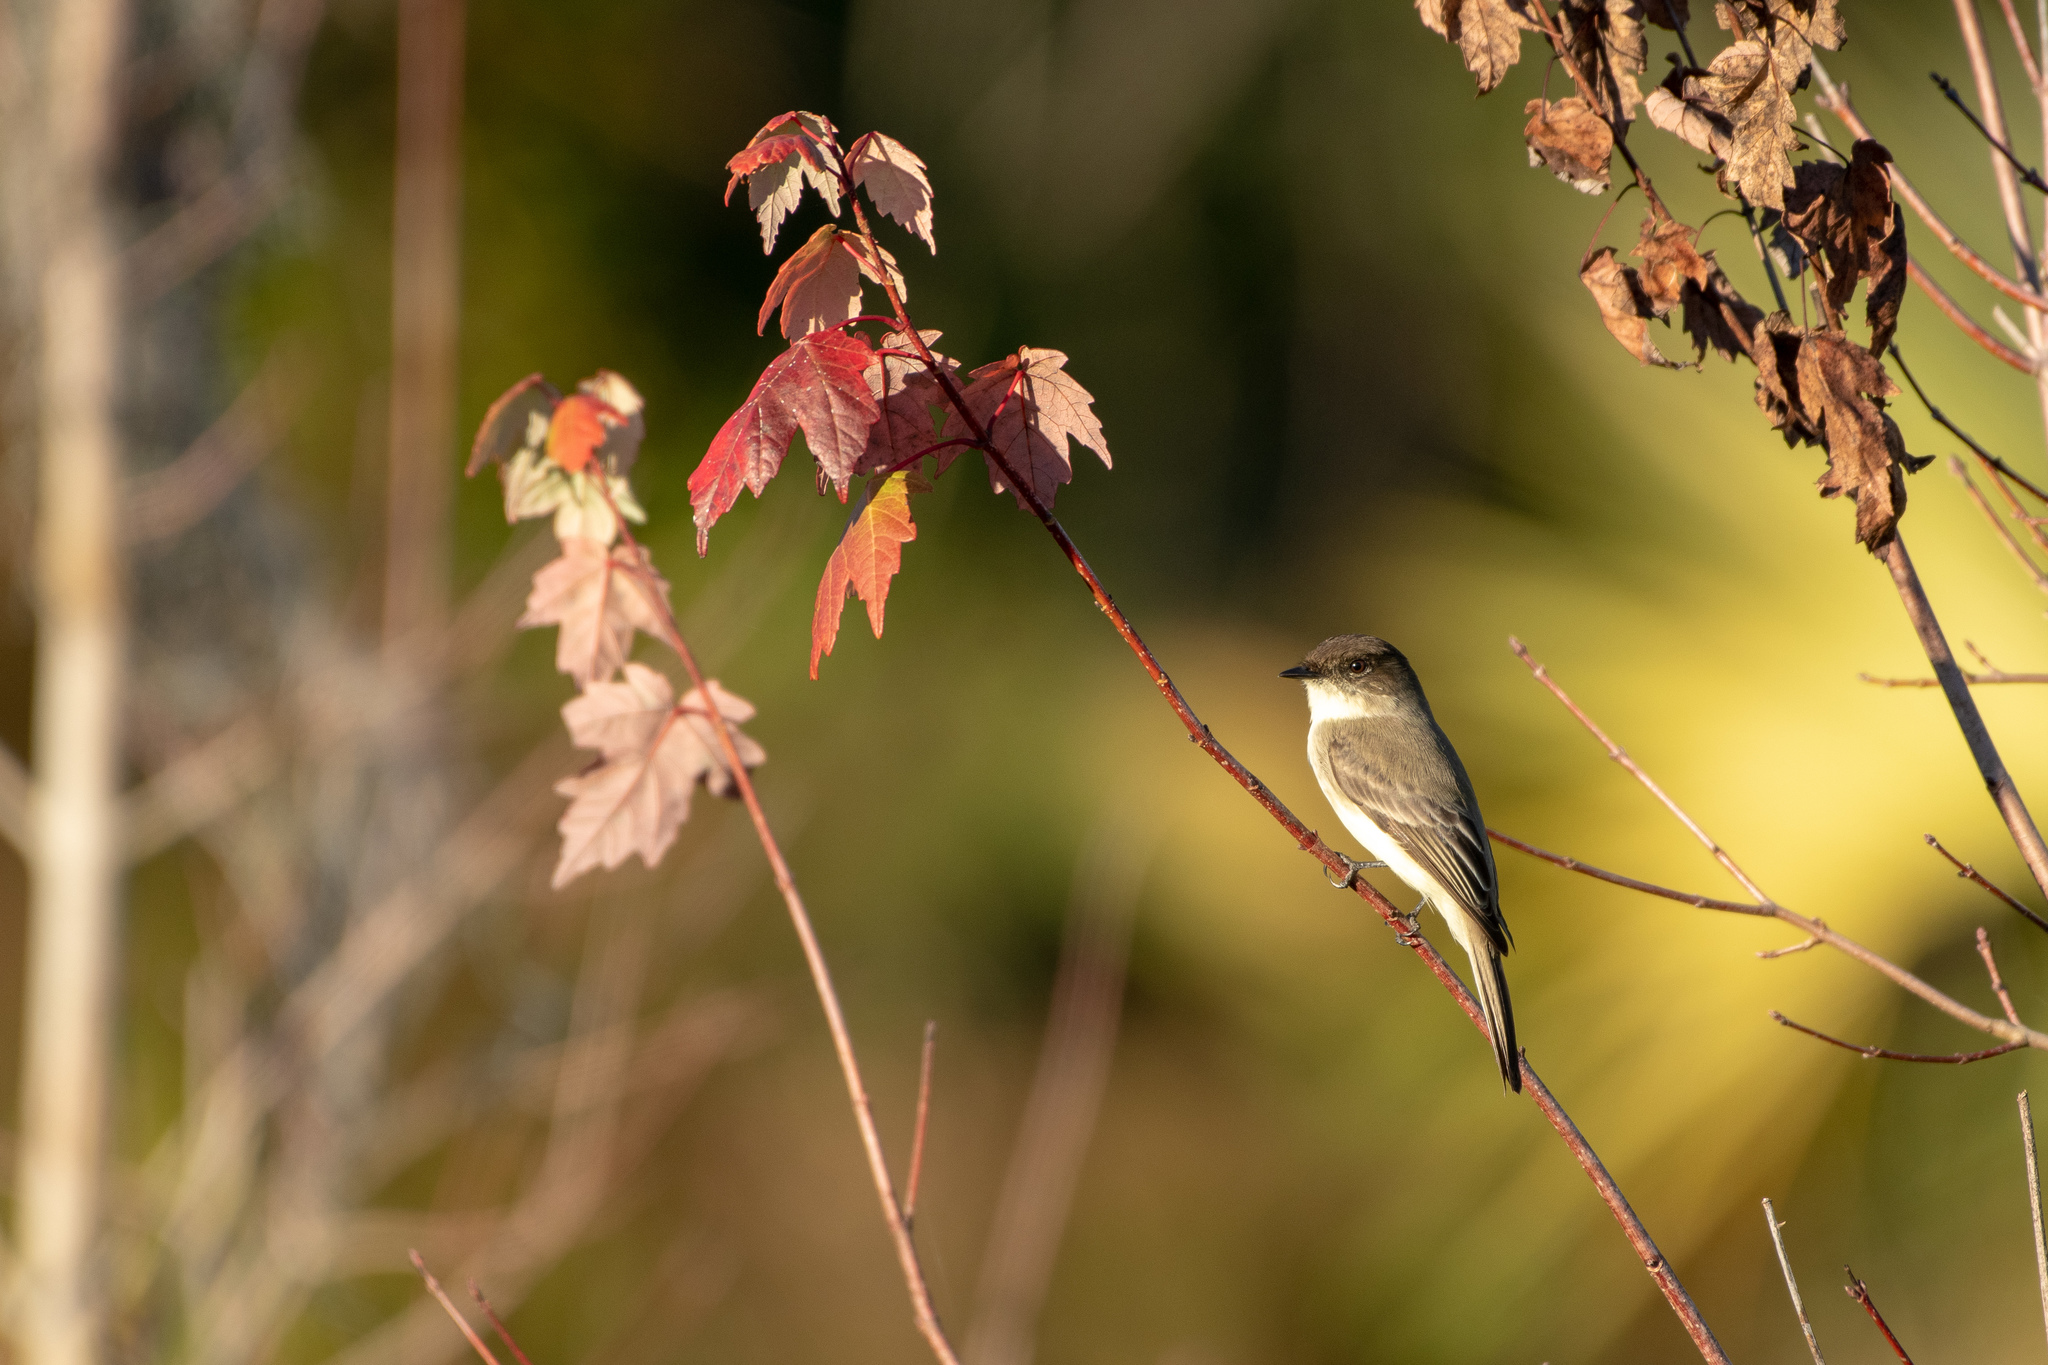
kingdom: Animalia
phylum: Chordata
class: Aves
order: Passeriformes
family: Tyrannidae
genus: Sayornis
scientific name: Sayornis phoebe
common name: Eastern phoebe
